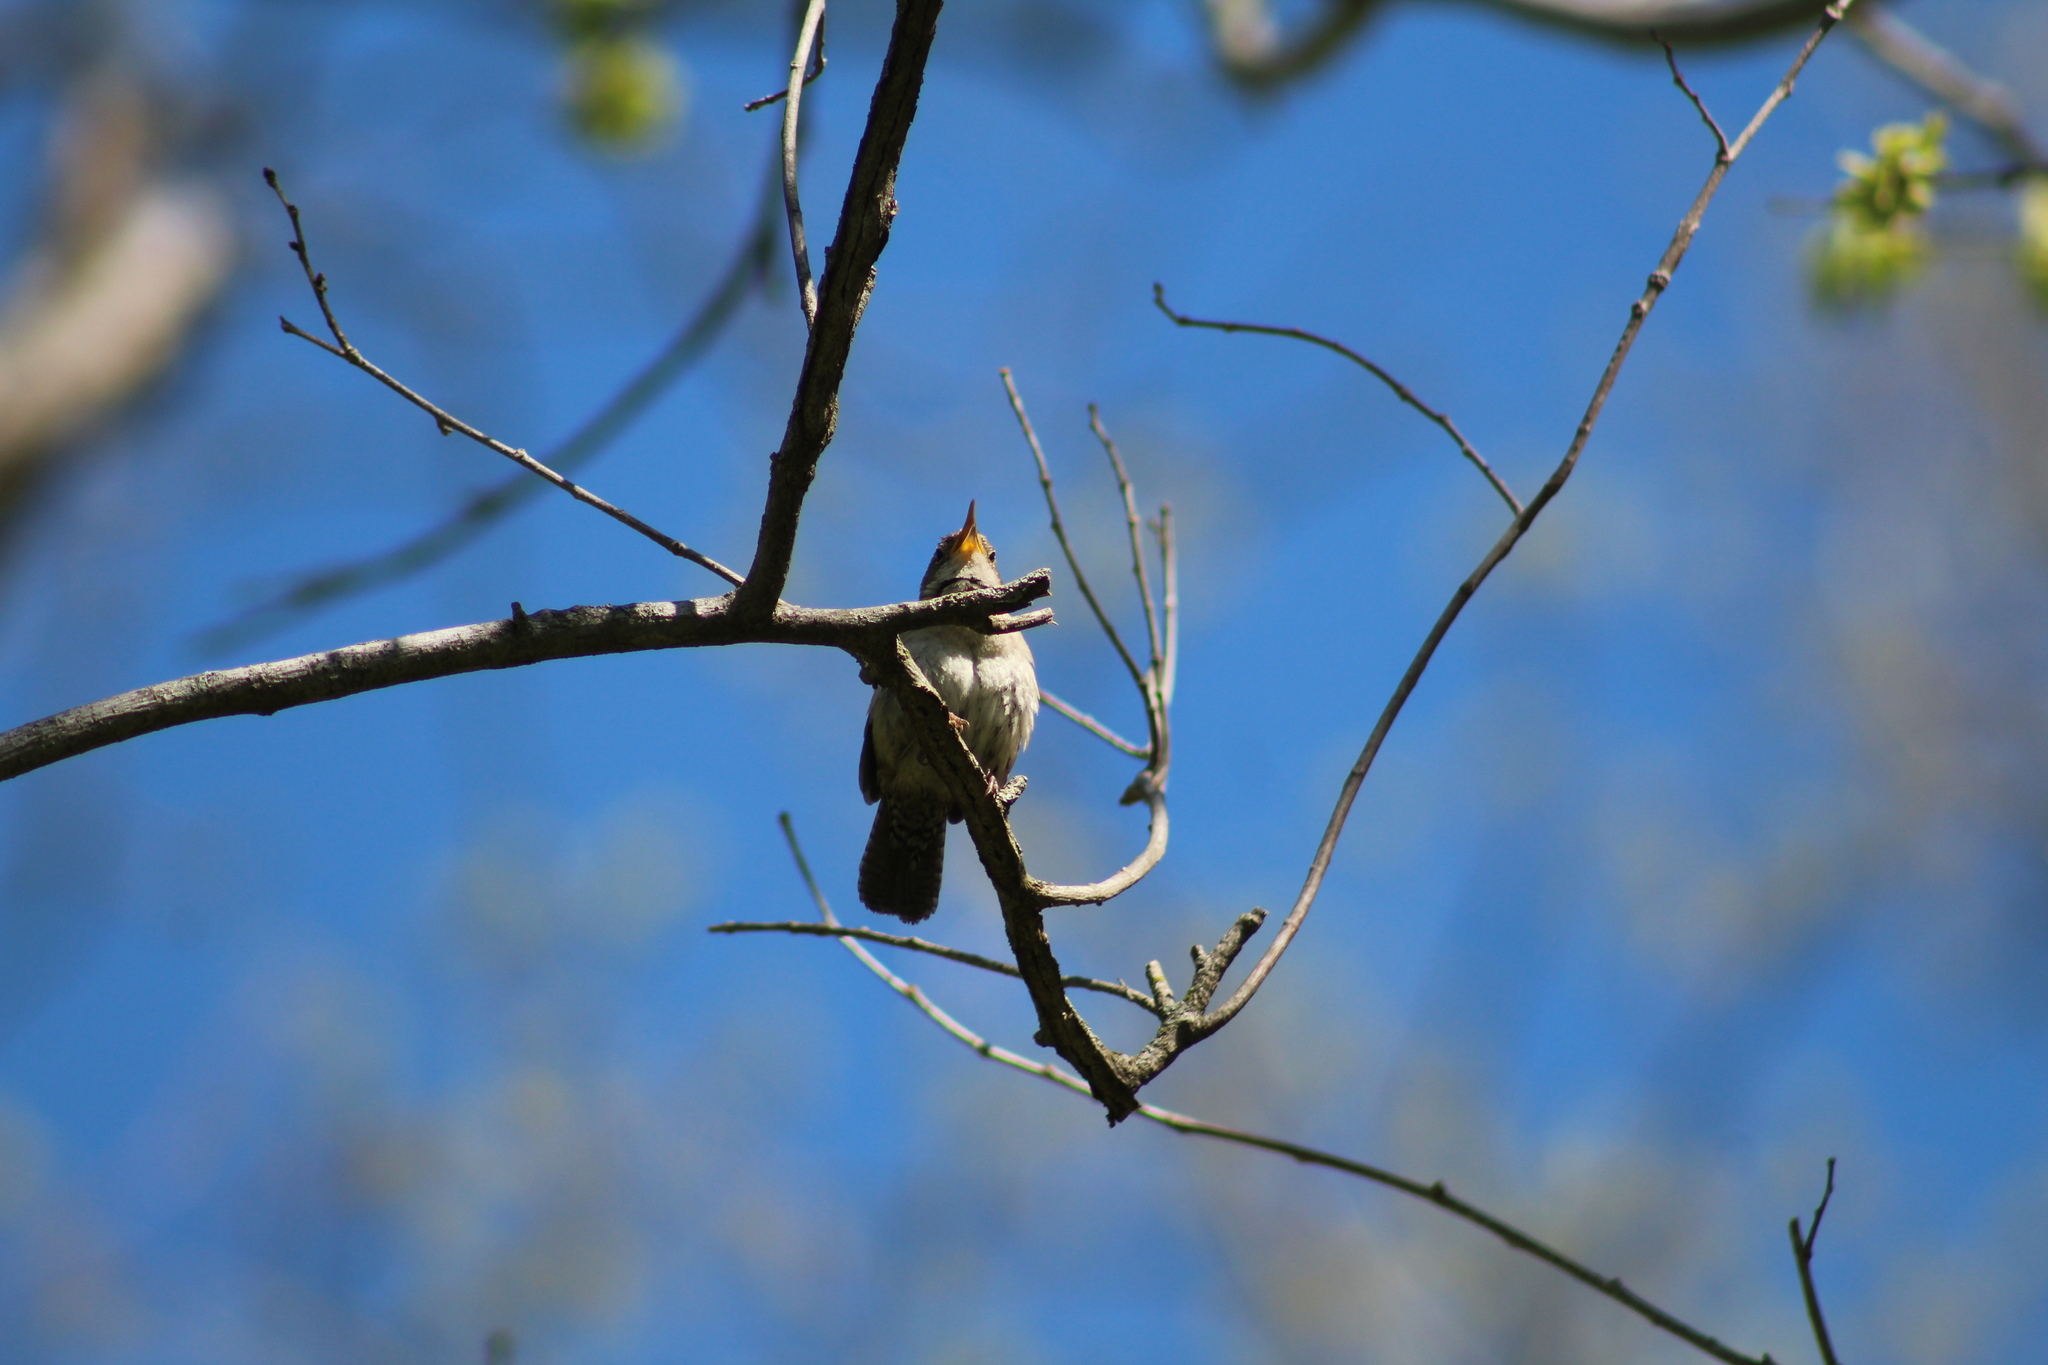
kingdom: Animalia
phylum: Chordata
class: Aves
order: Passeriformes
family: Troglodytidae
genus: Troglodytes
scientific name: Troglodytes aedon
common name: House wren
